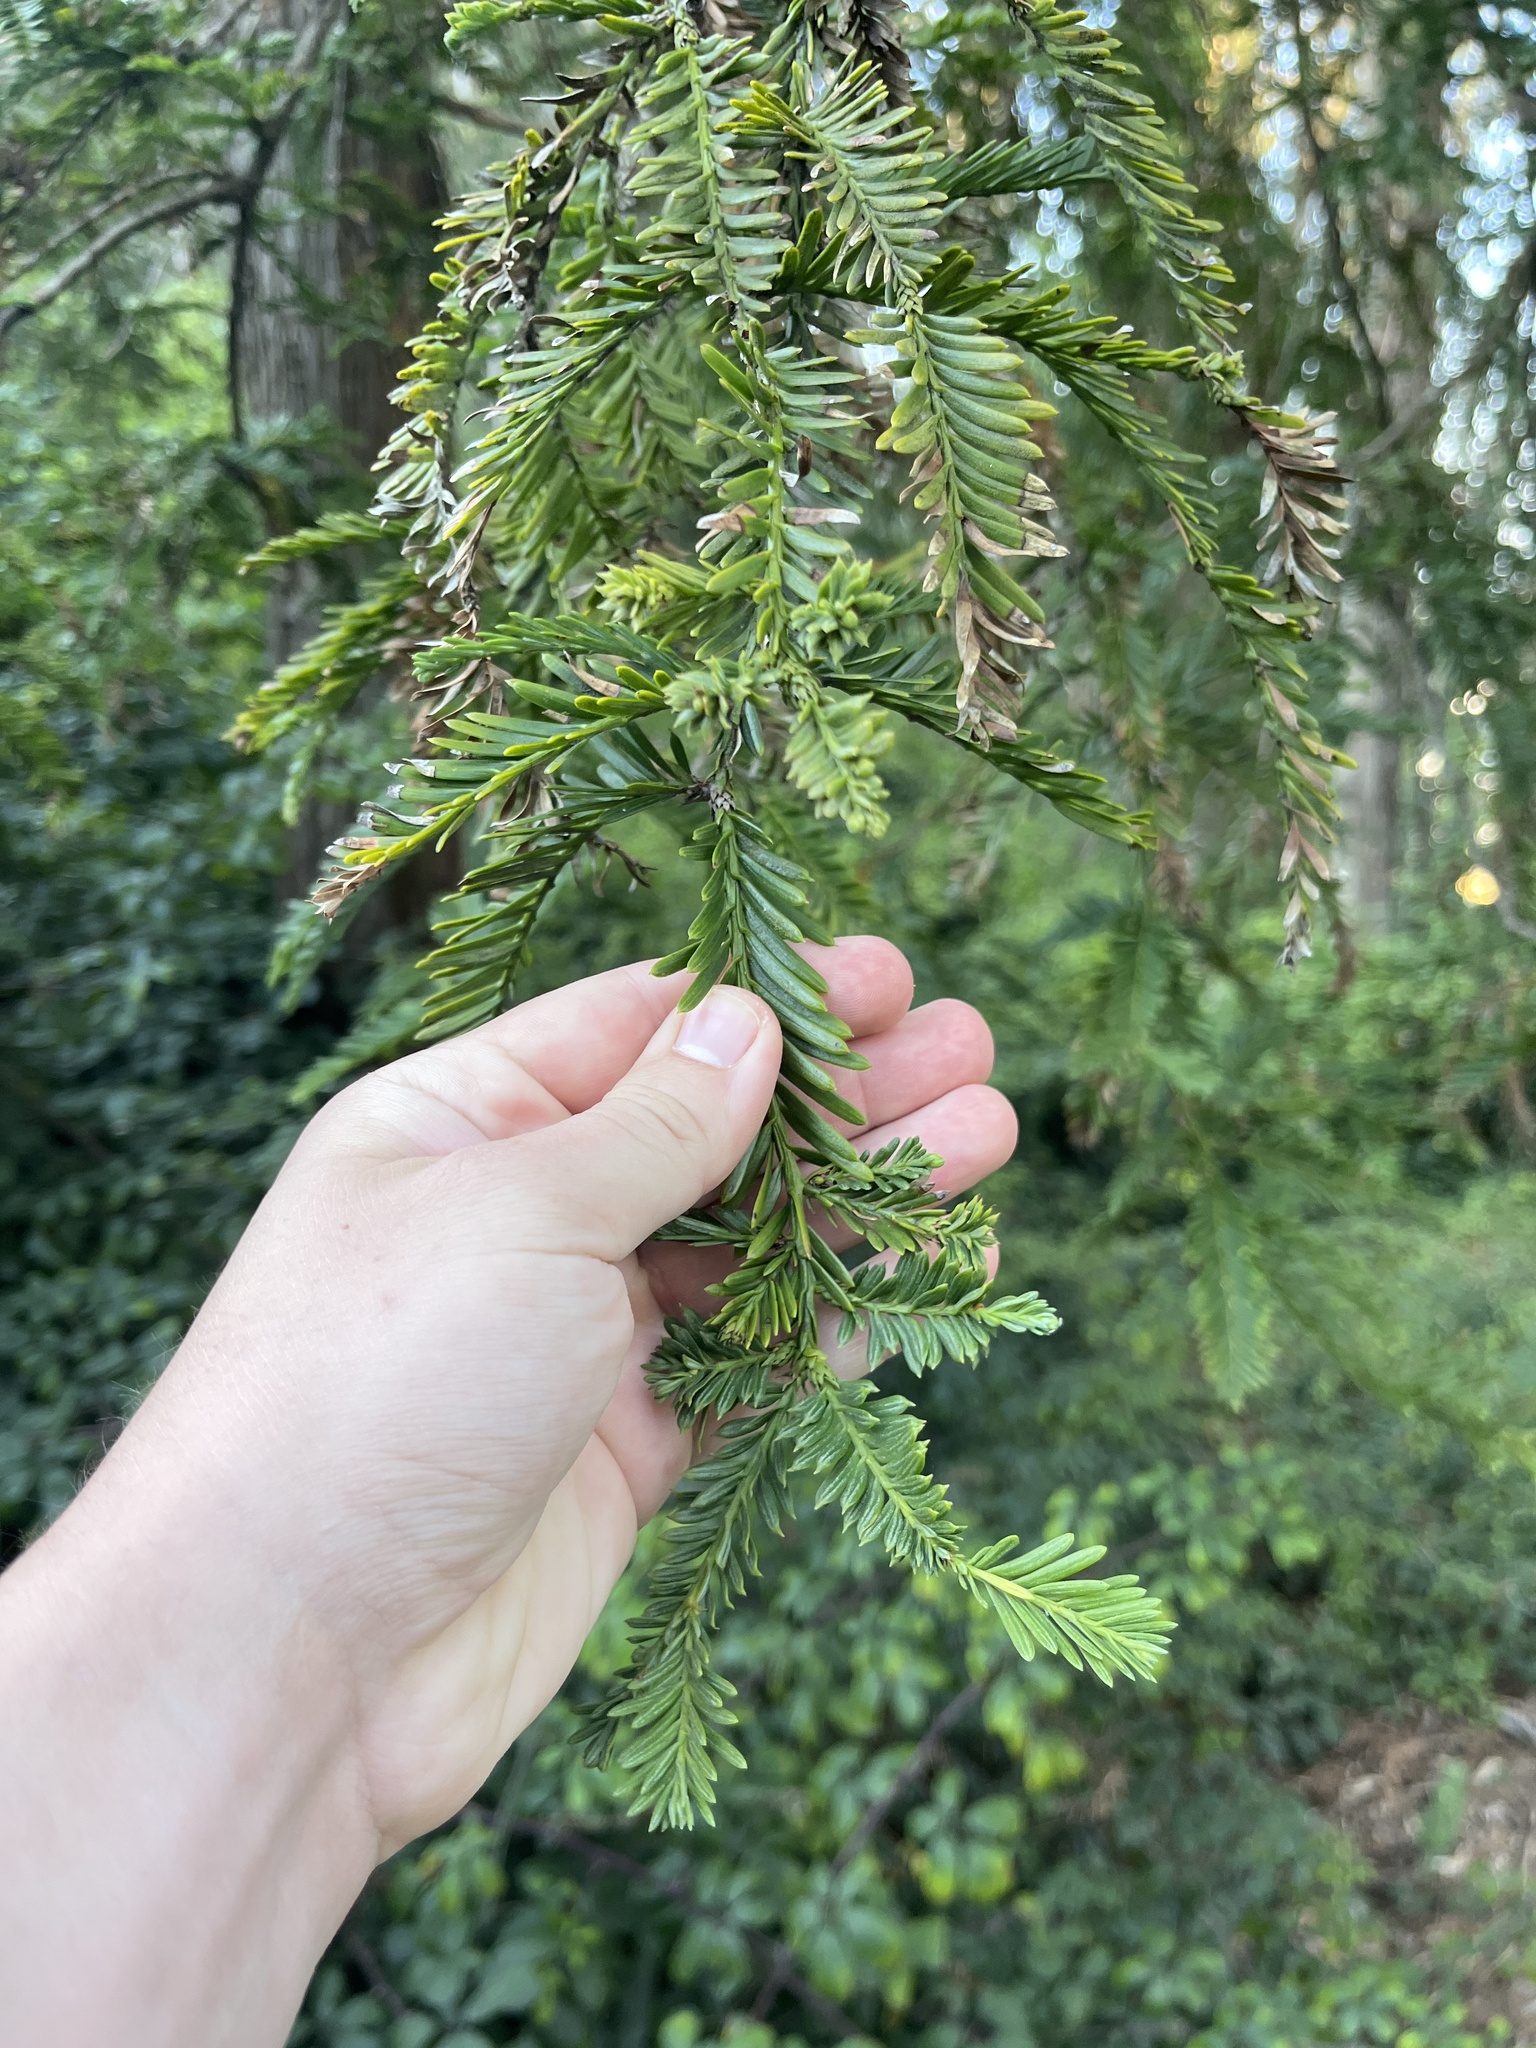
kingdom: Plantae
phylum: Tracheophyta
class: Pinopsida
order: Pinales
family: Cupressaceae
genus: Sequoia
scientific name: Sequoia sempervirens
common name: Coast redwood
